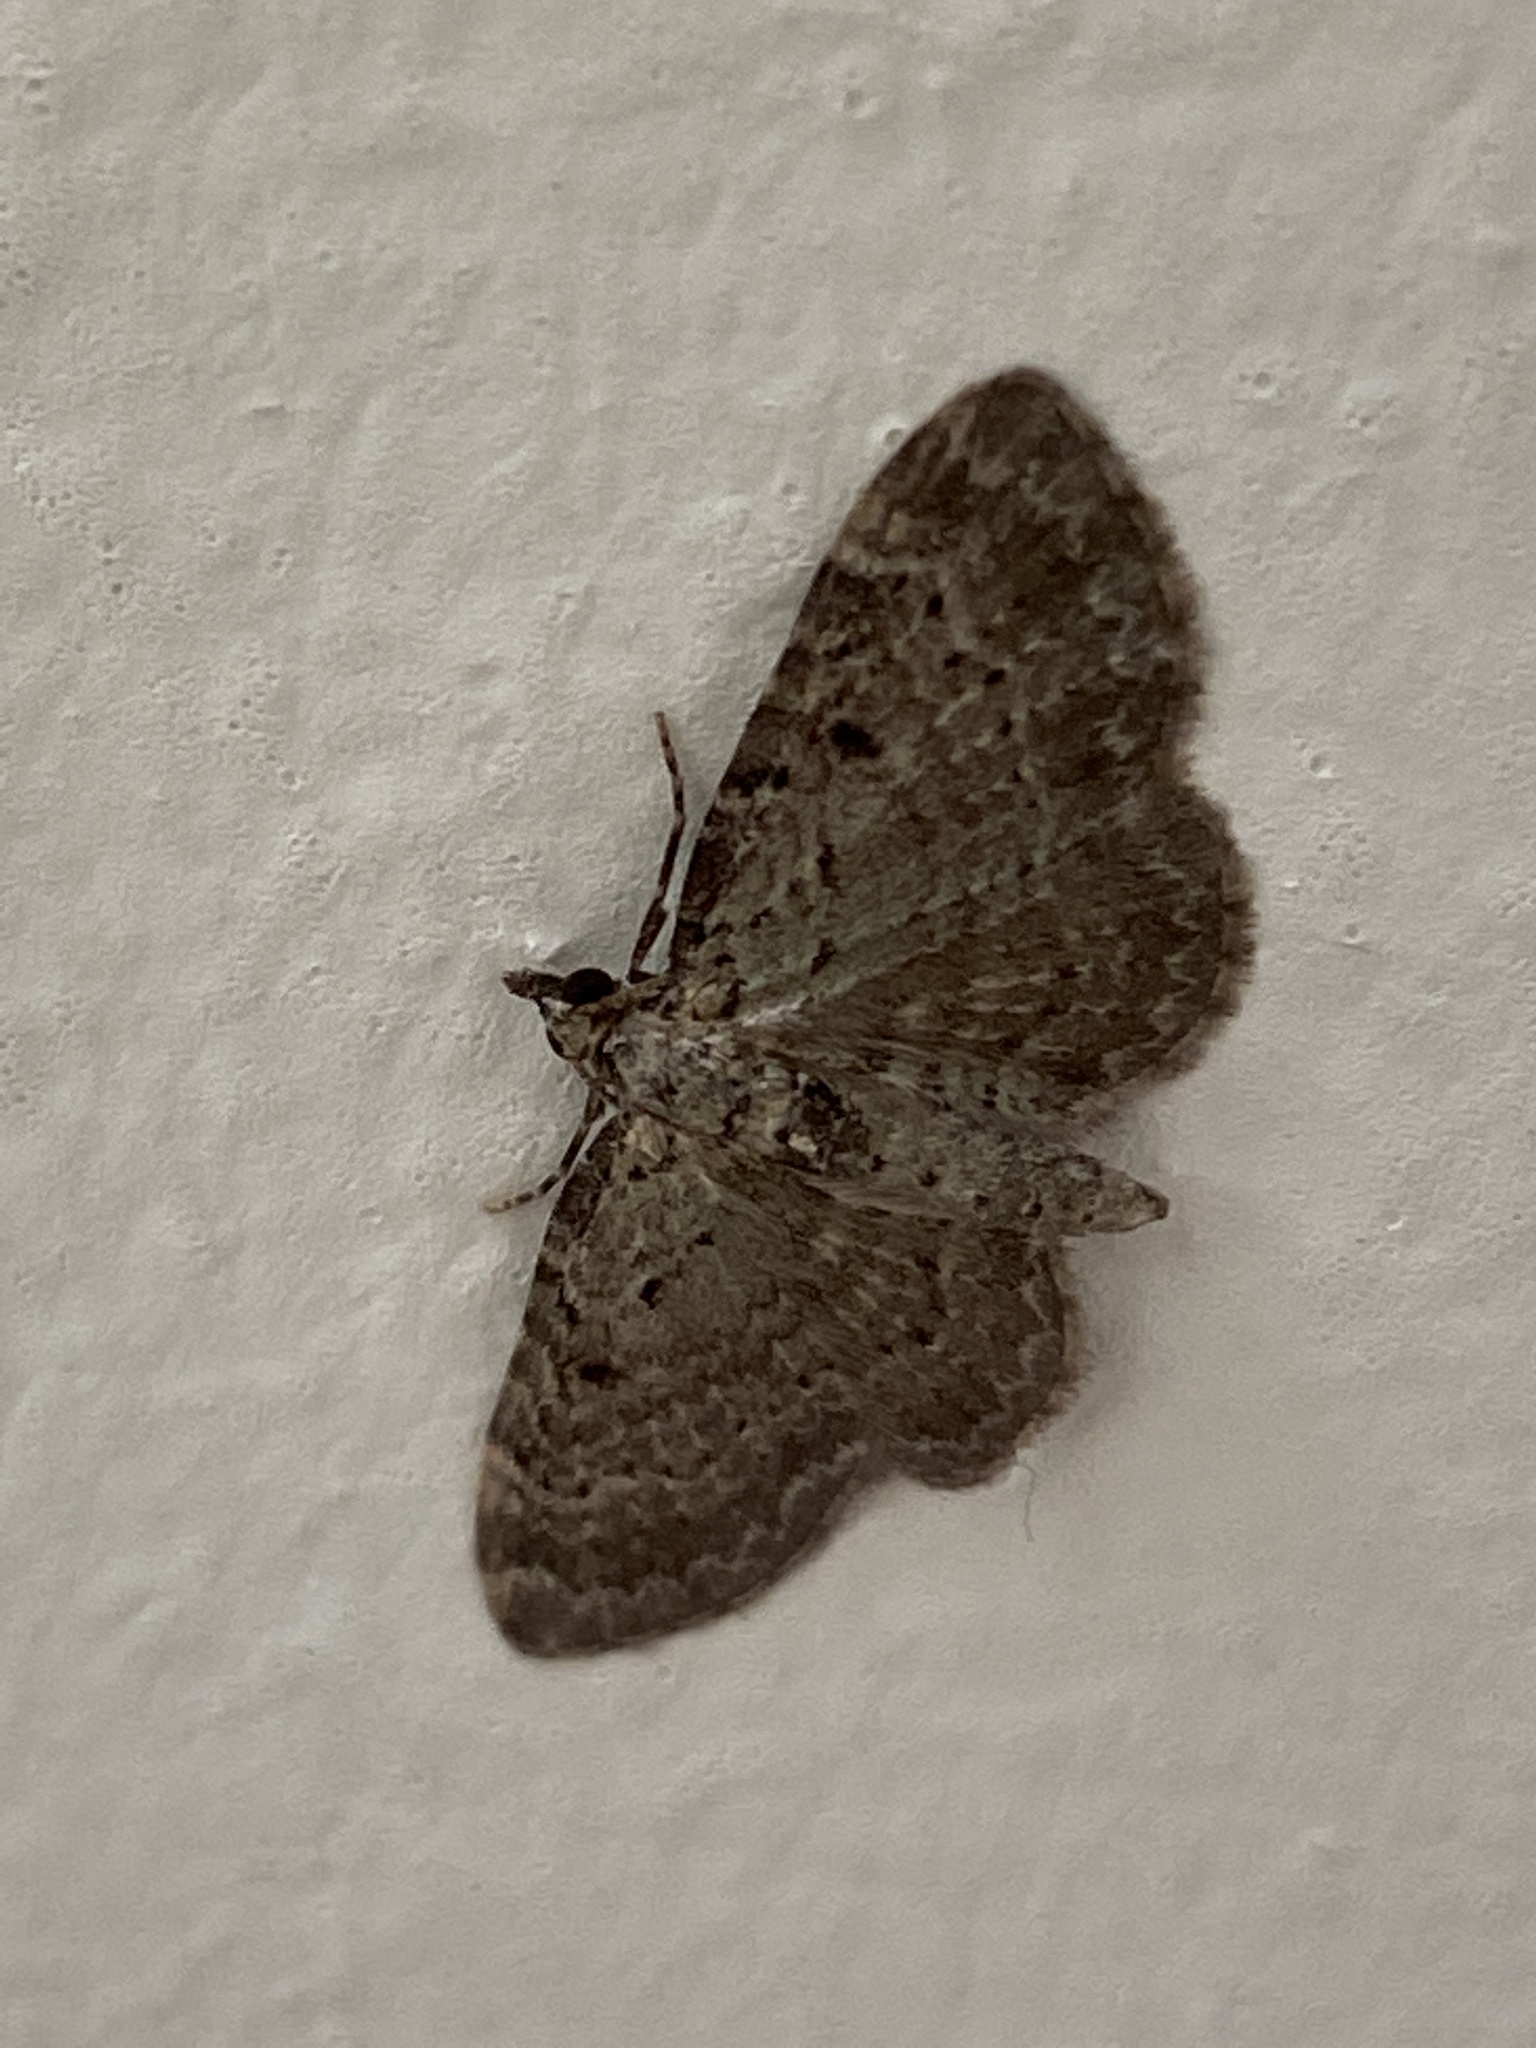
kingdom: Animalia
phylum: Arthropoda
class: Insecta
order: Lepidoptera
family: Geometridae
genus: Pasiphila
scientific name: Pasiphila rectangulata
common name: Green pug
